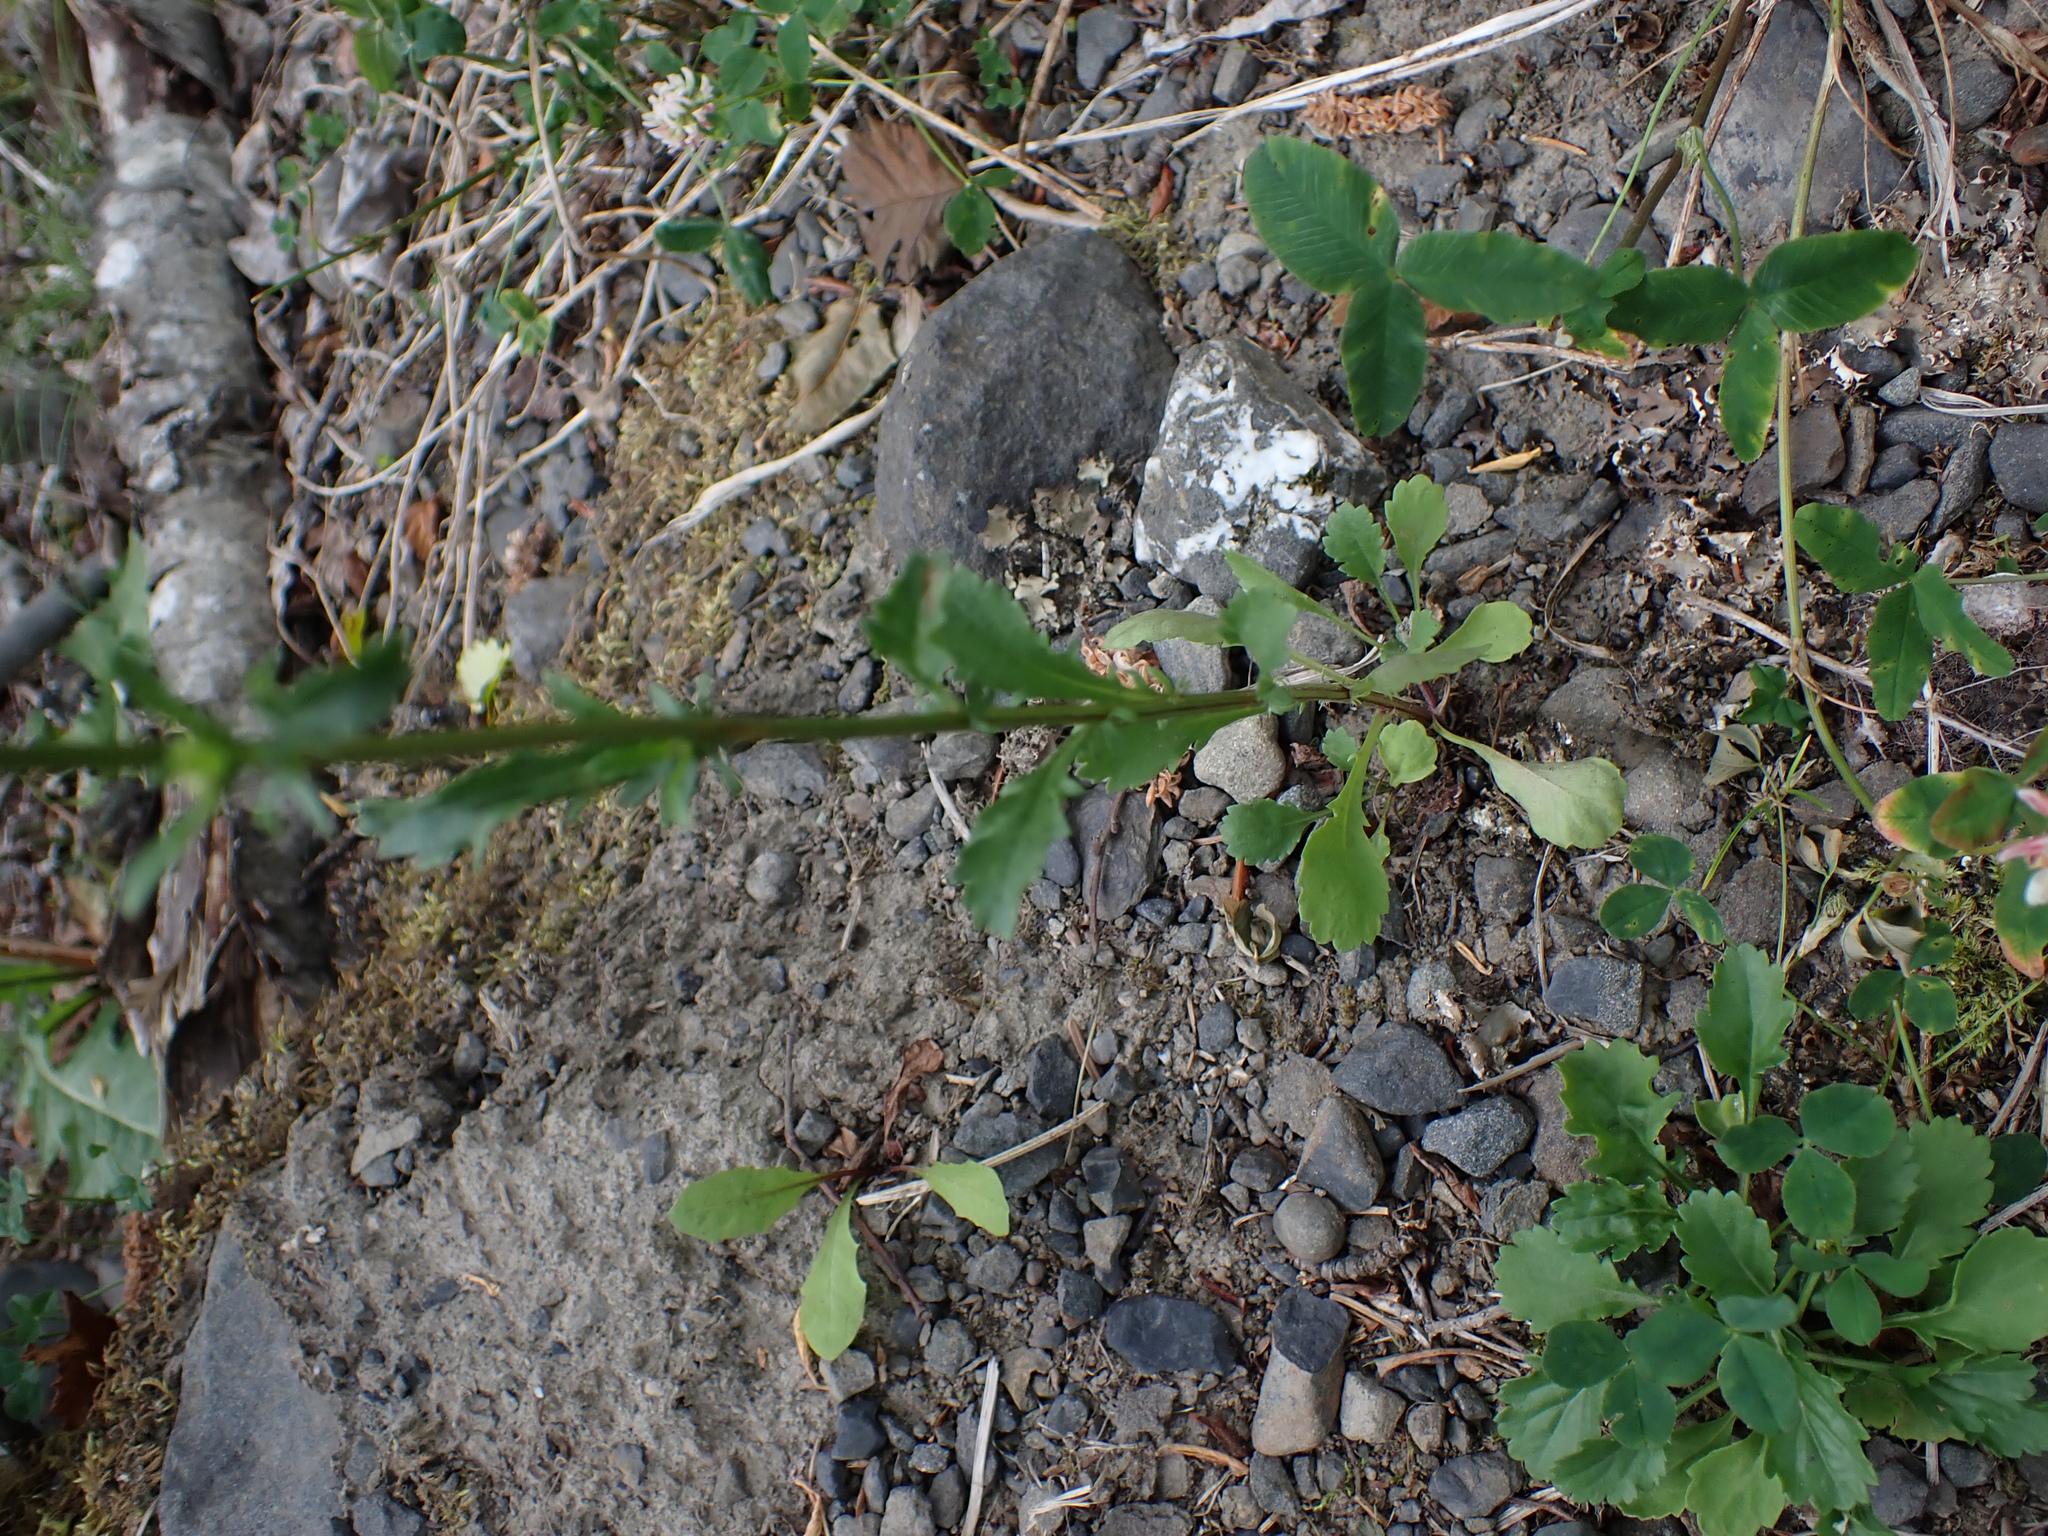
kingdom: Plantae
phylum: Tracheophyta
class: Magnoliopsida
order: Asterales
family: Asteraceae
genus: Leucanthemum
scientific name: Leucanthemum vulgare
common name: Oxeye daisy
